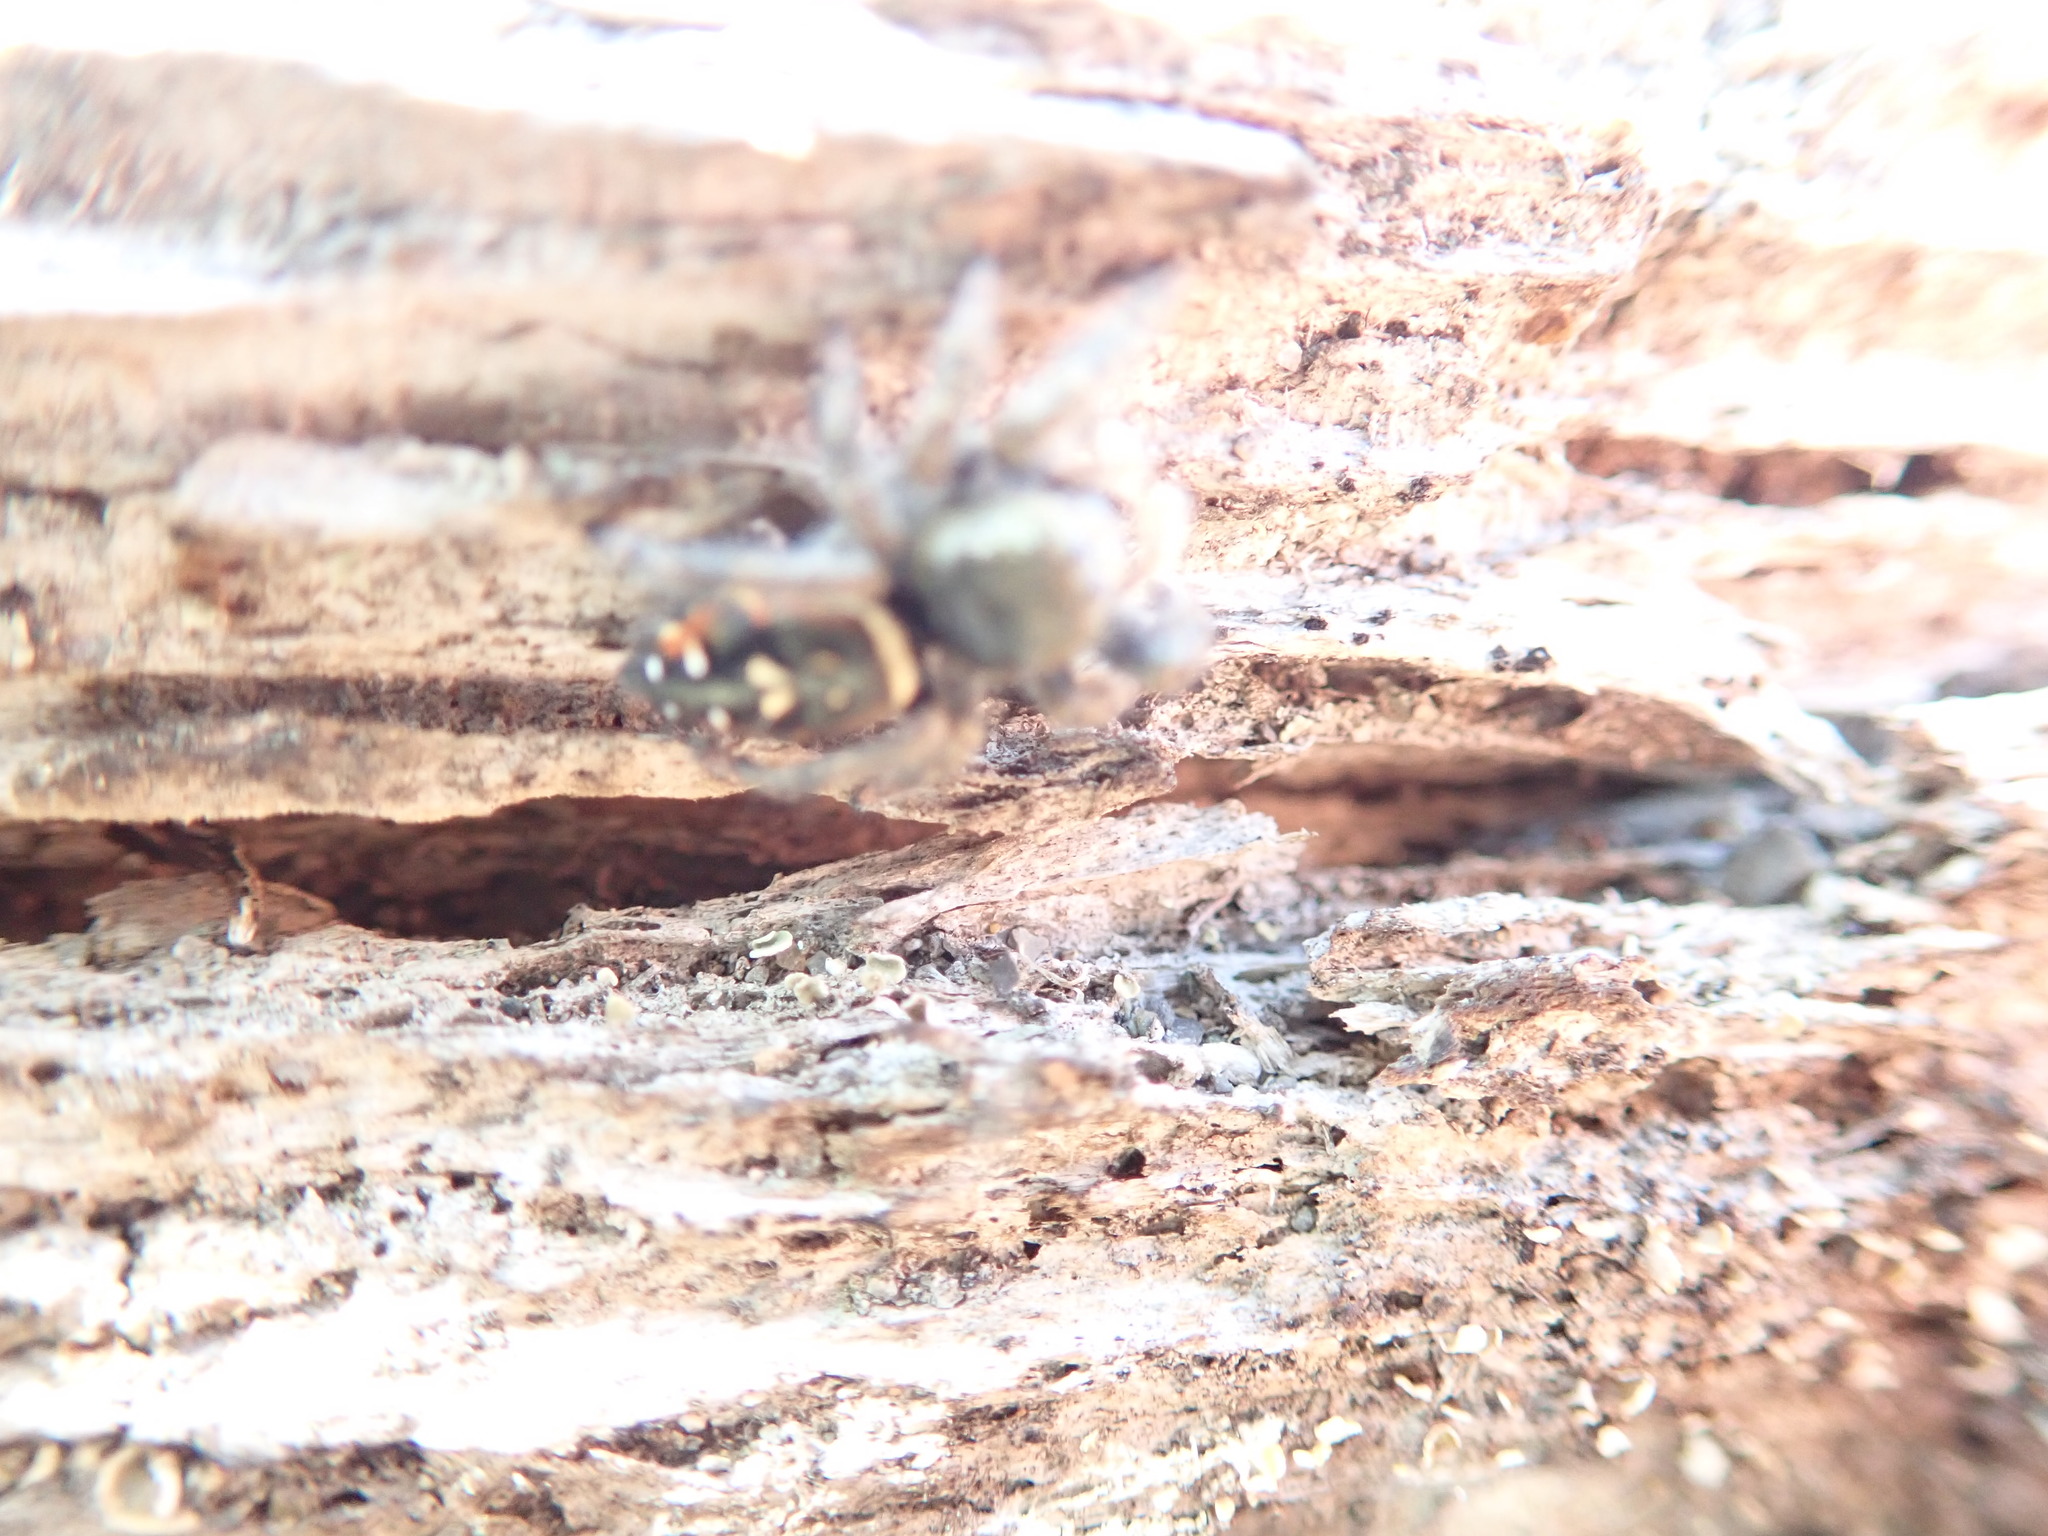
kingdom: Animalia
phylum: Arthropoda
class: Arachnida
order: Araneae
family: Salticidae
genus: Phidippus
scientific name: Phidippus johnsoni
